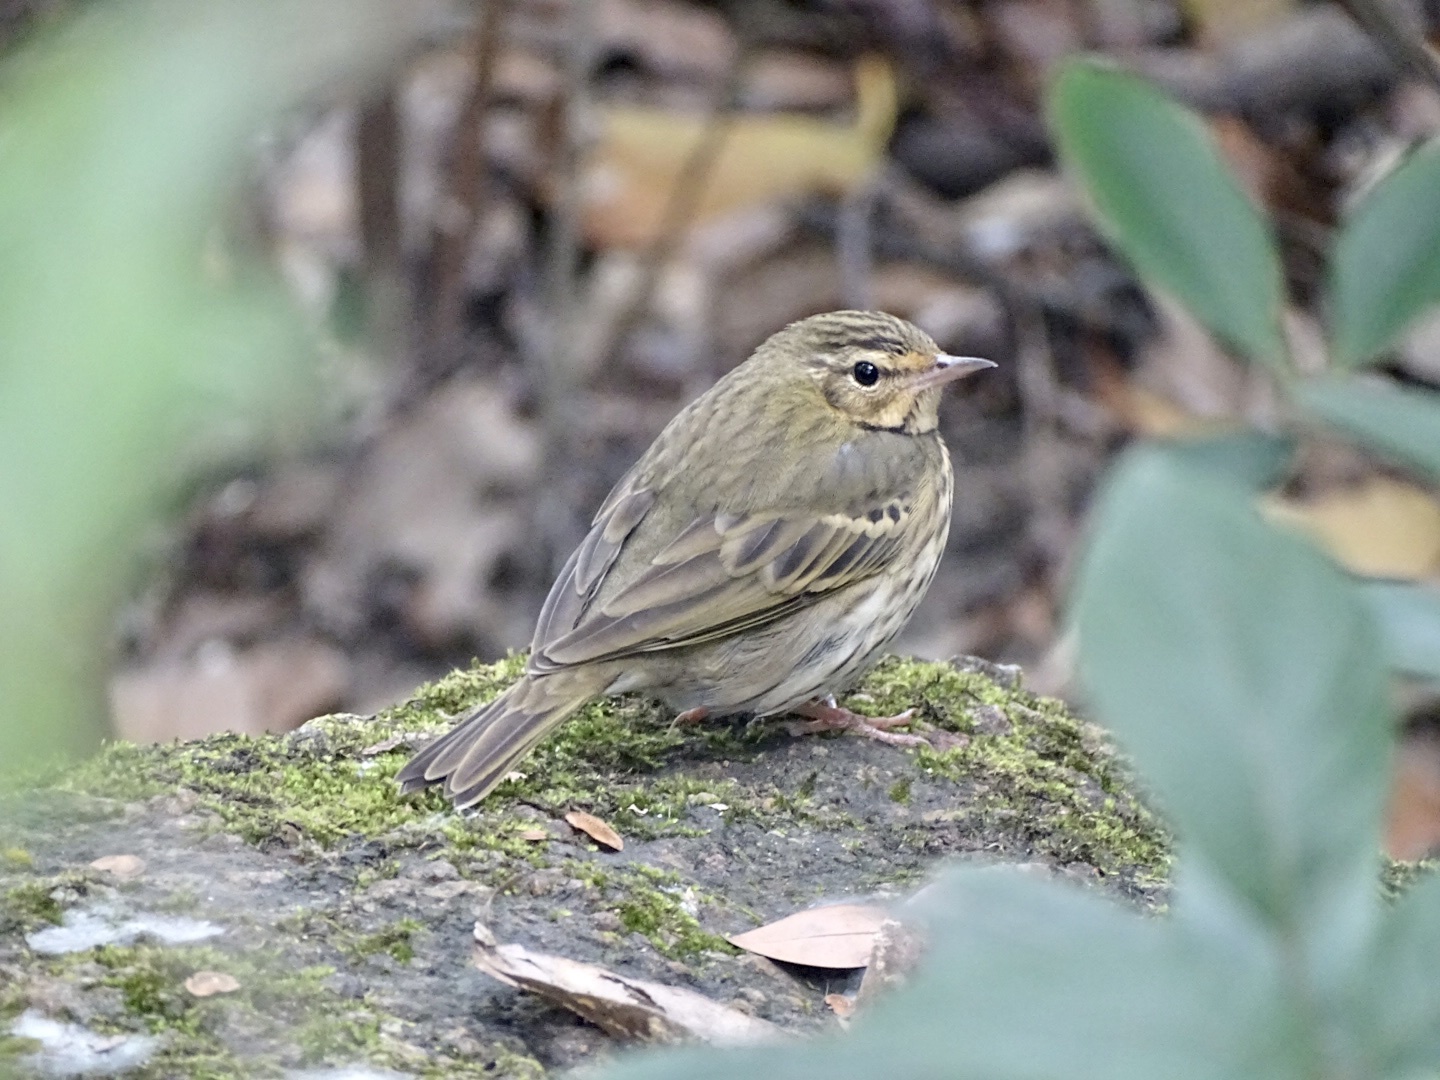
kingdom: Animalia
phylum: Chordata
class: Aves
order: Passeriformes
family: Motacillidae
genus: Anthus
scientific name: Anthus hodgsoni
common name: Olive-backed pipit
